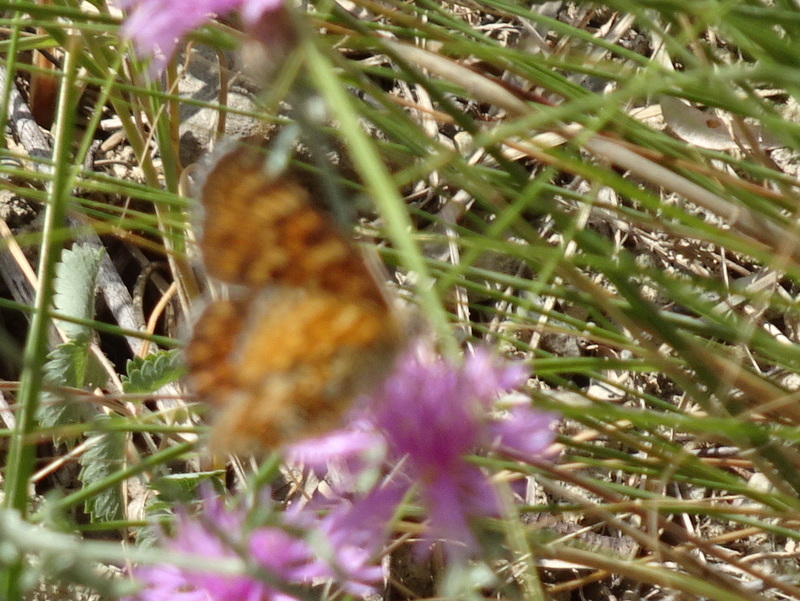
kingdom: Animalia
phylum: Arthropoda
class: Insecta
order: Lepidoptera
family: Nymphalidae
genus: Melitaea
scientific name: Melitaea phoebe
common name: Knapweed fritillary
